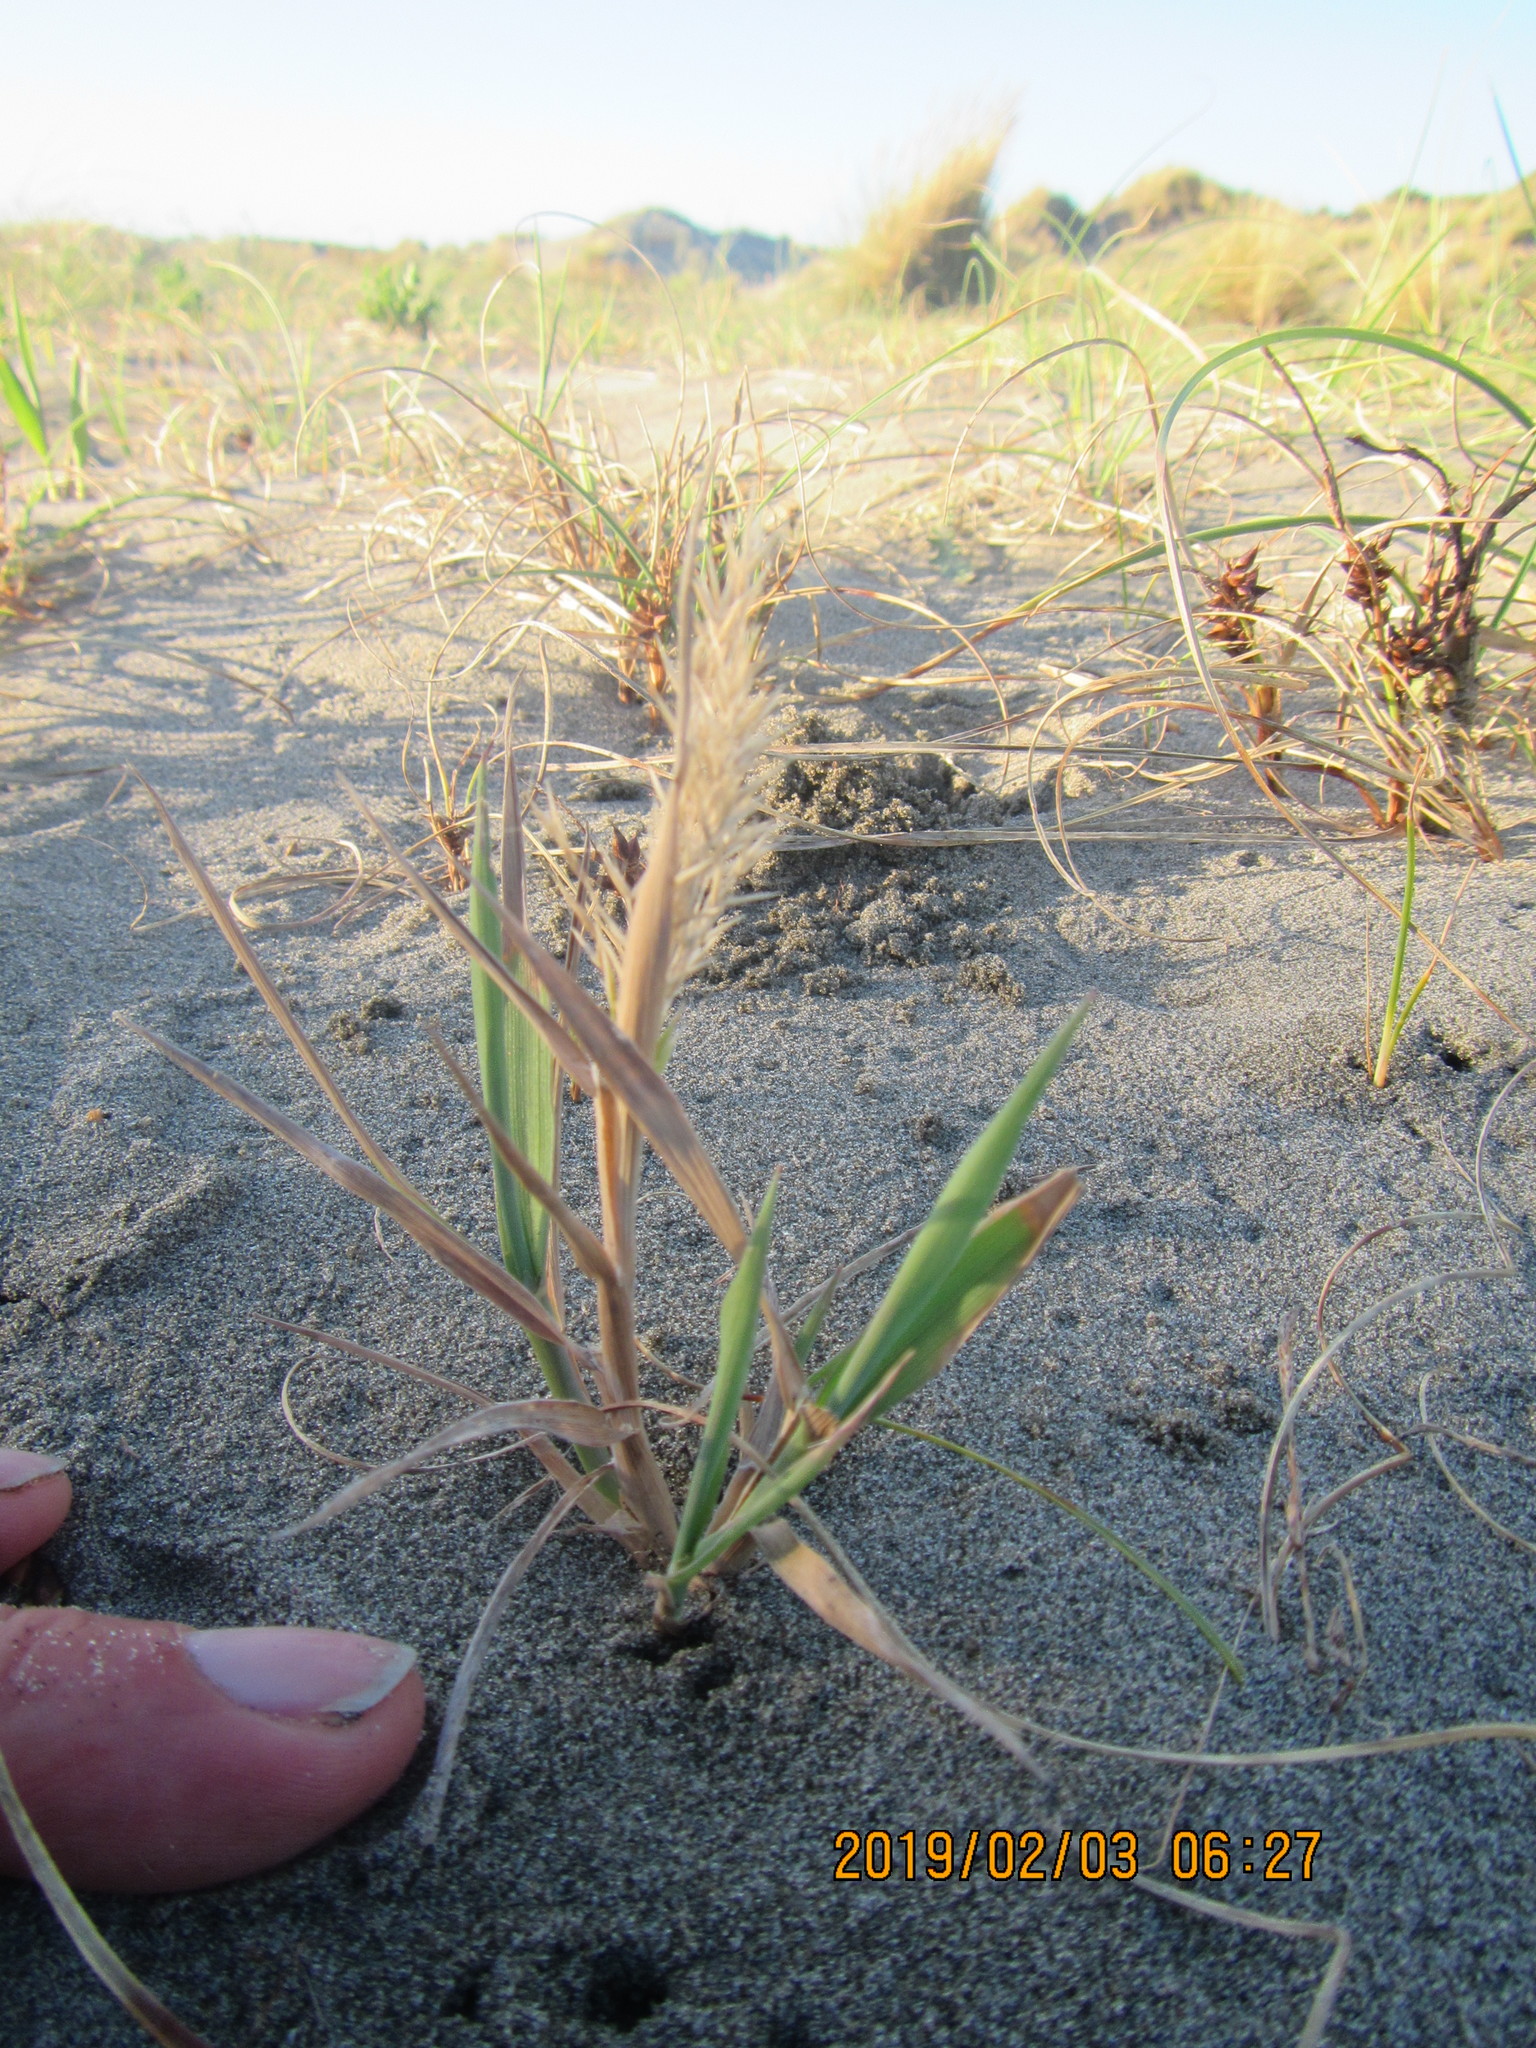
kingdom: Plantae
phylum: Tracheophyta
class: Liliopsida
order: Poales
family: Poaceae
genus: Lachnagrostis
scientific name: Lachnagrostis billardierei
